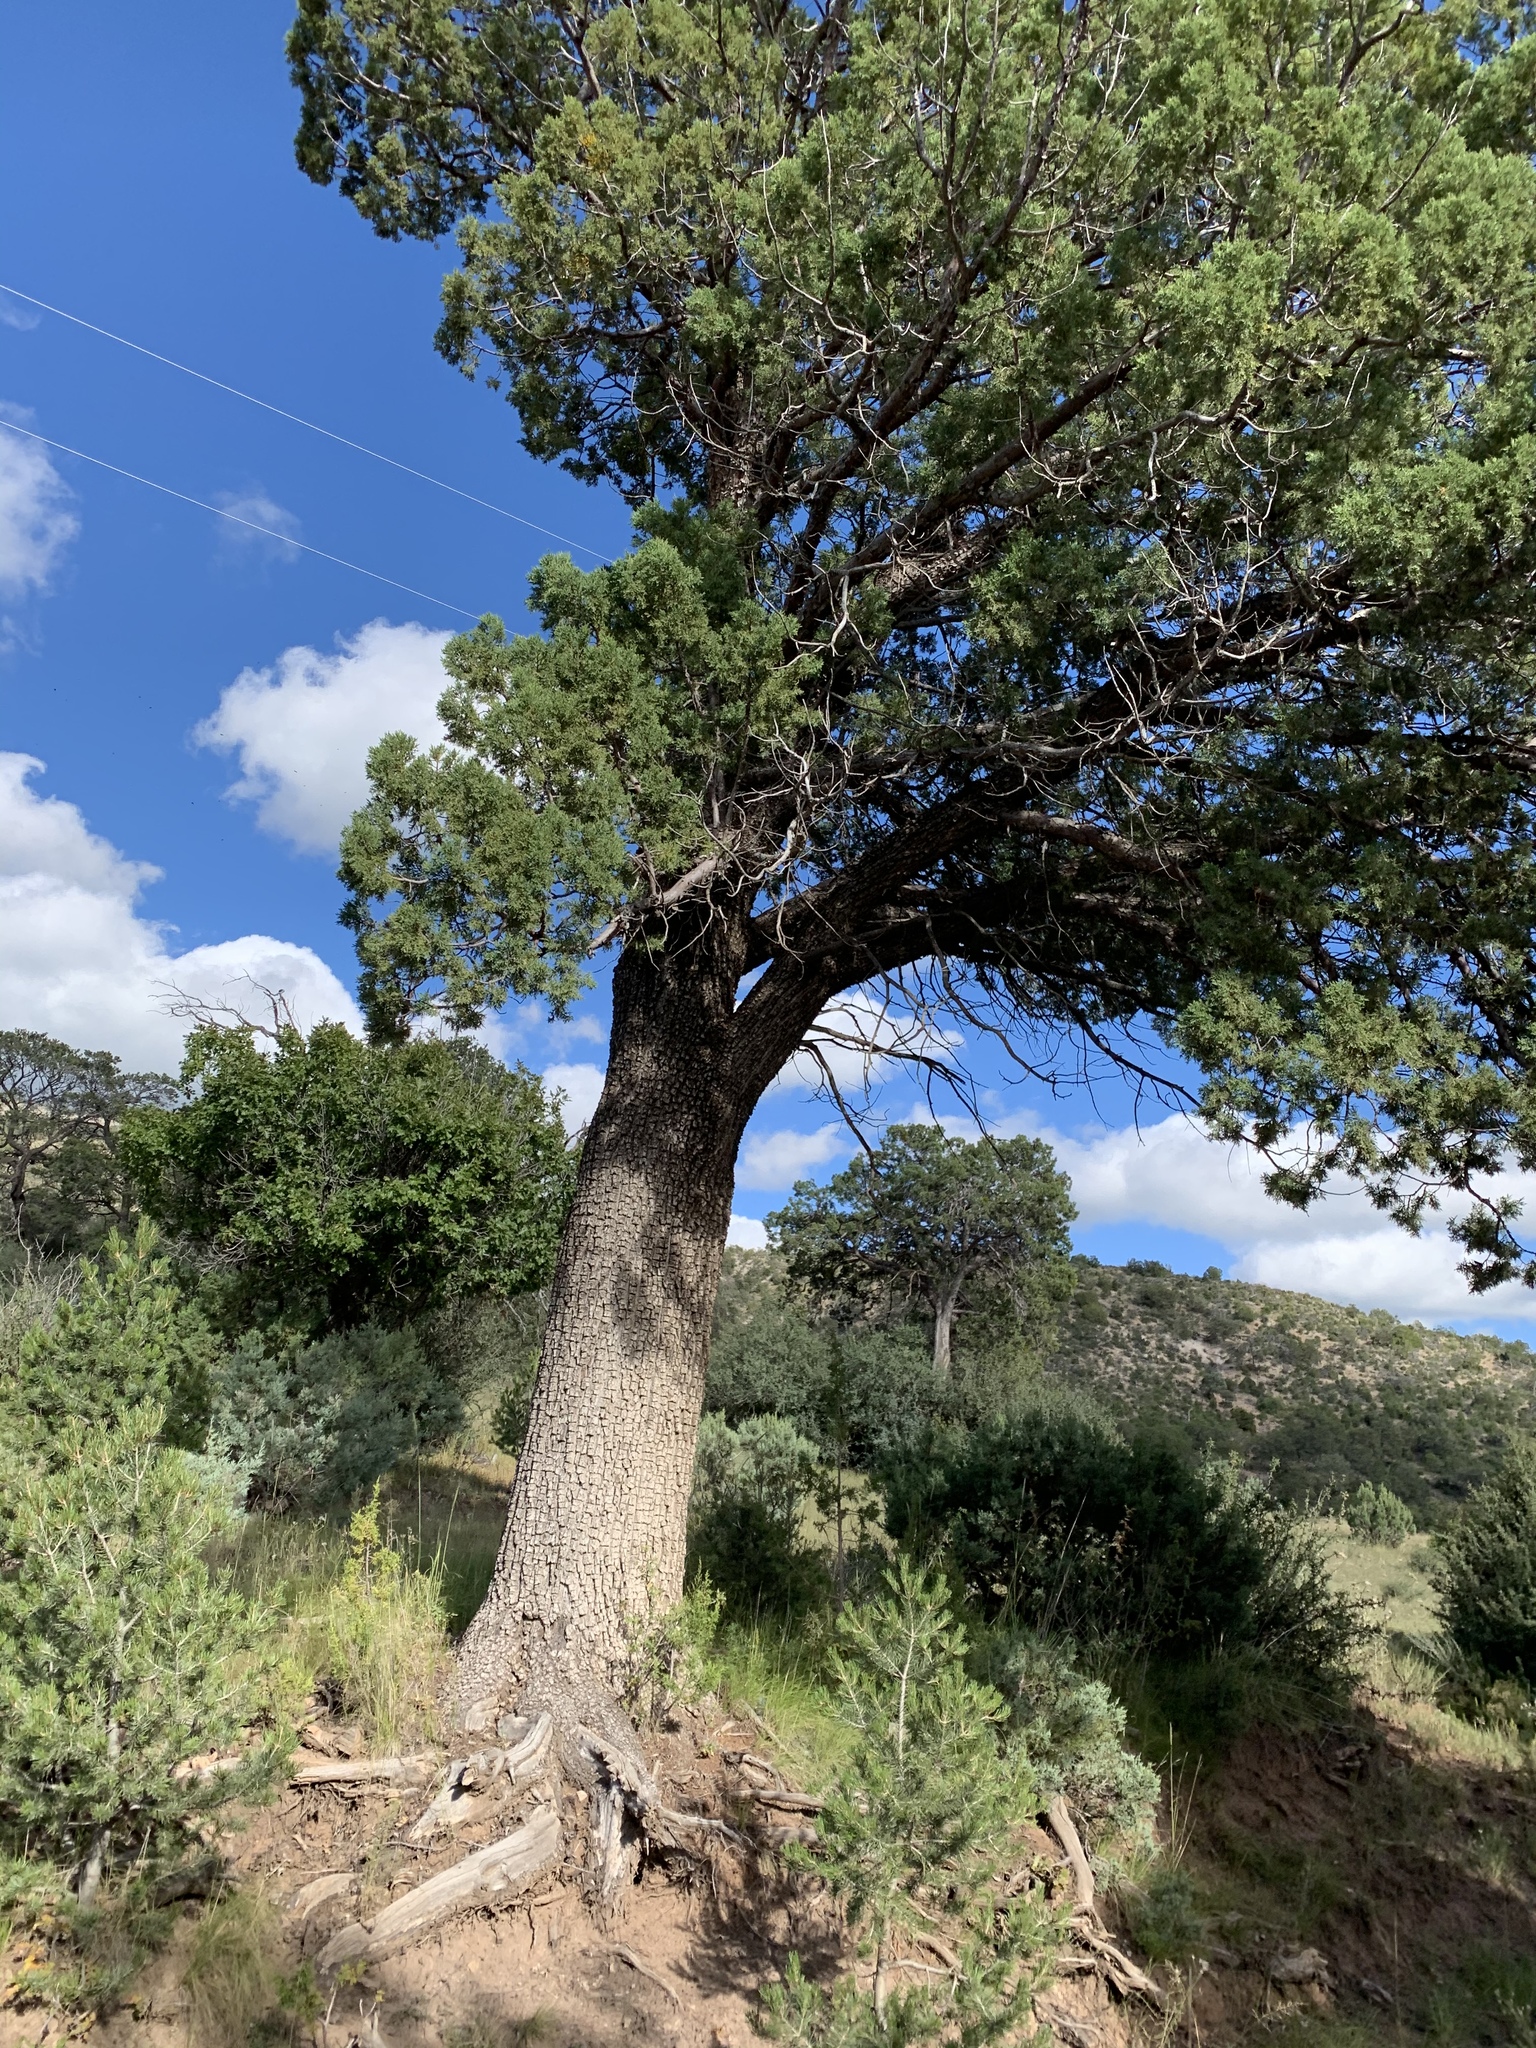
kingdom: Plantae
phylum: Tracheophyta
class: Pinopsida
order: Pinales
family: Cupressaceae
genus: Juniperus
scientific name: Juniperus deppeana
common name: Alligator juniper
